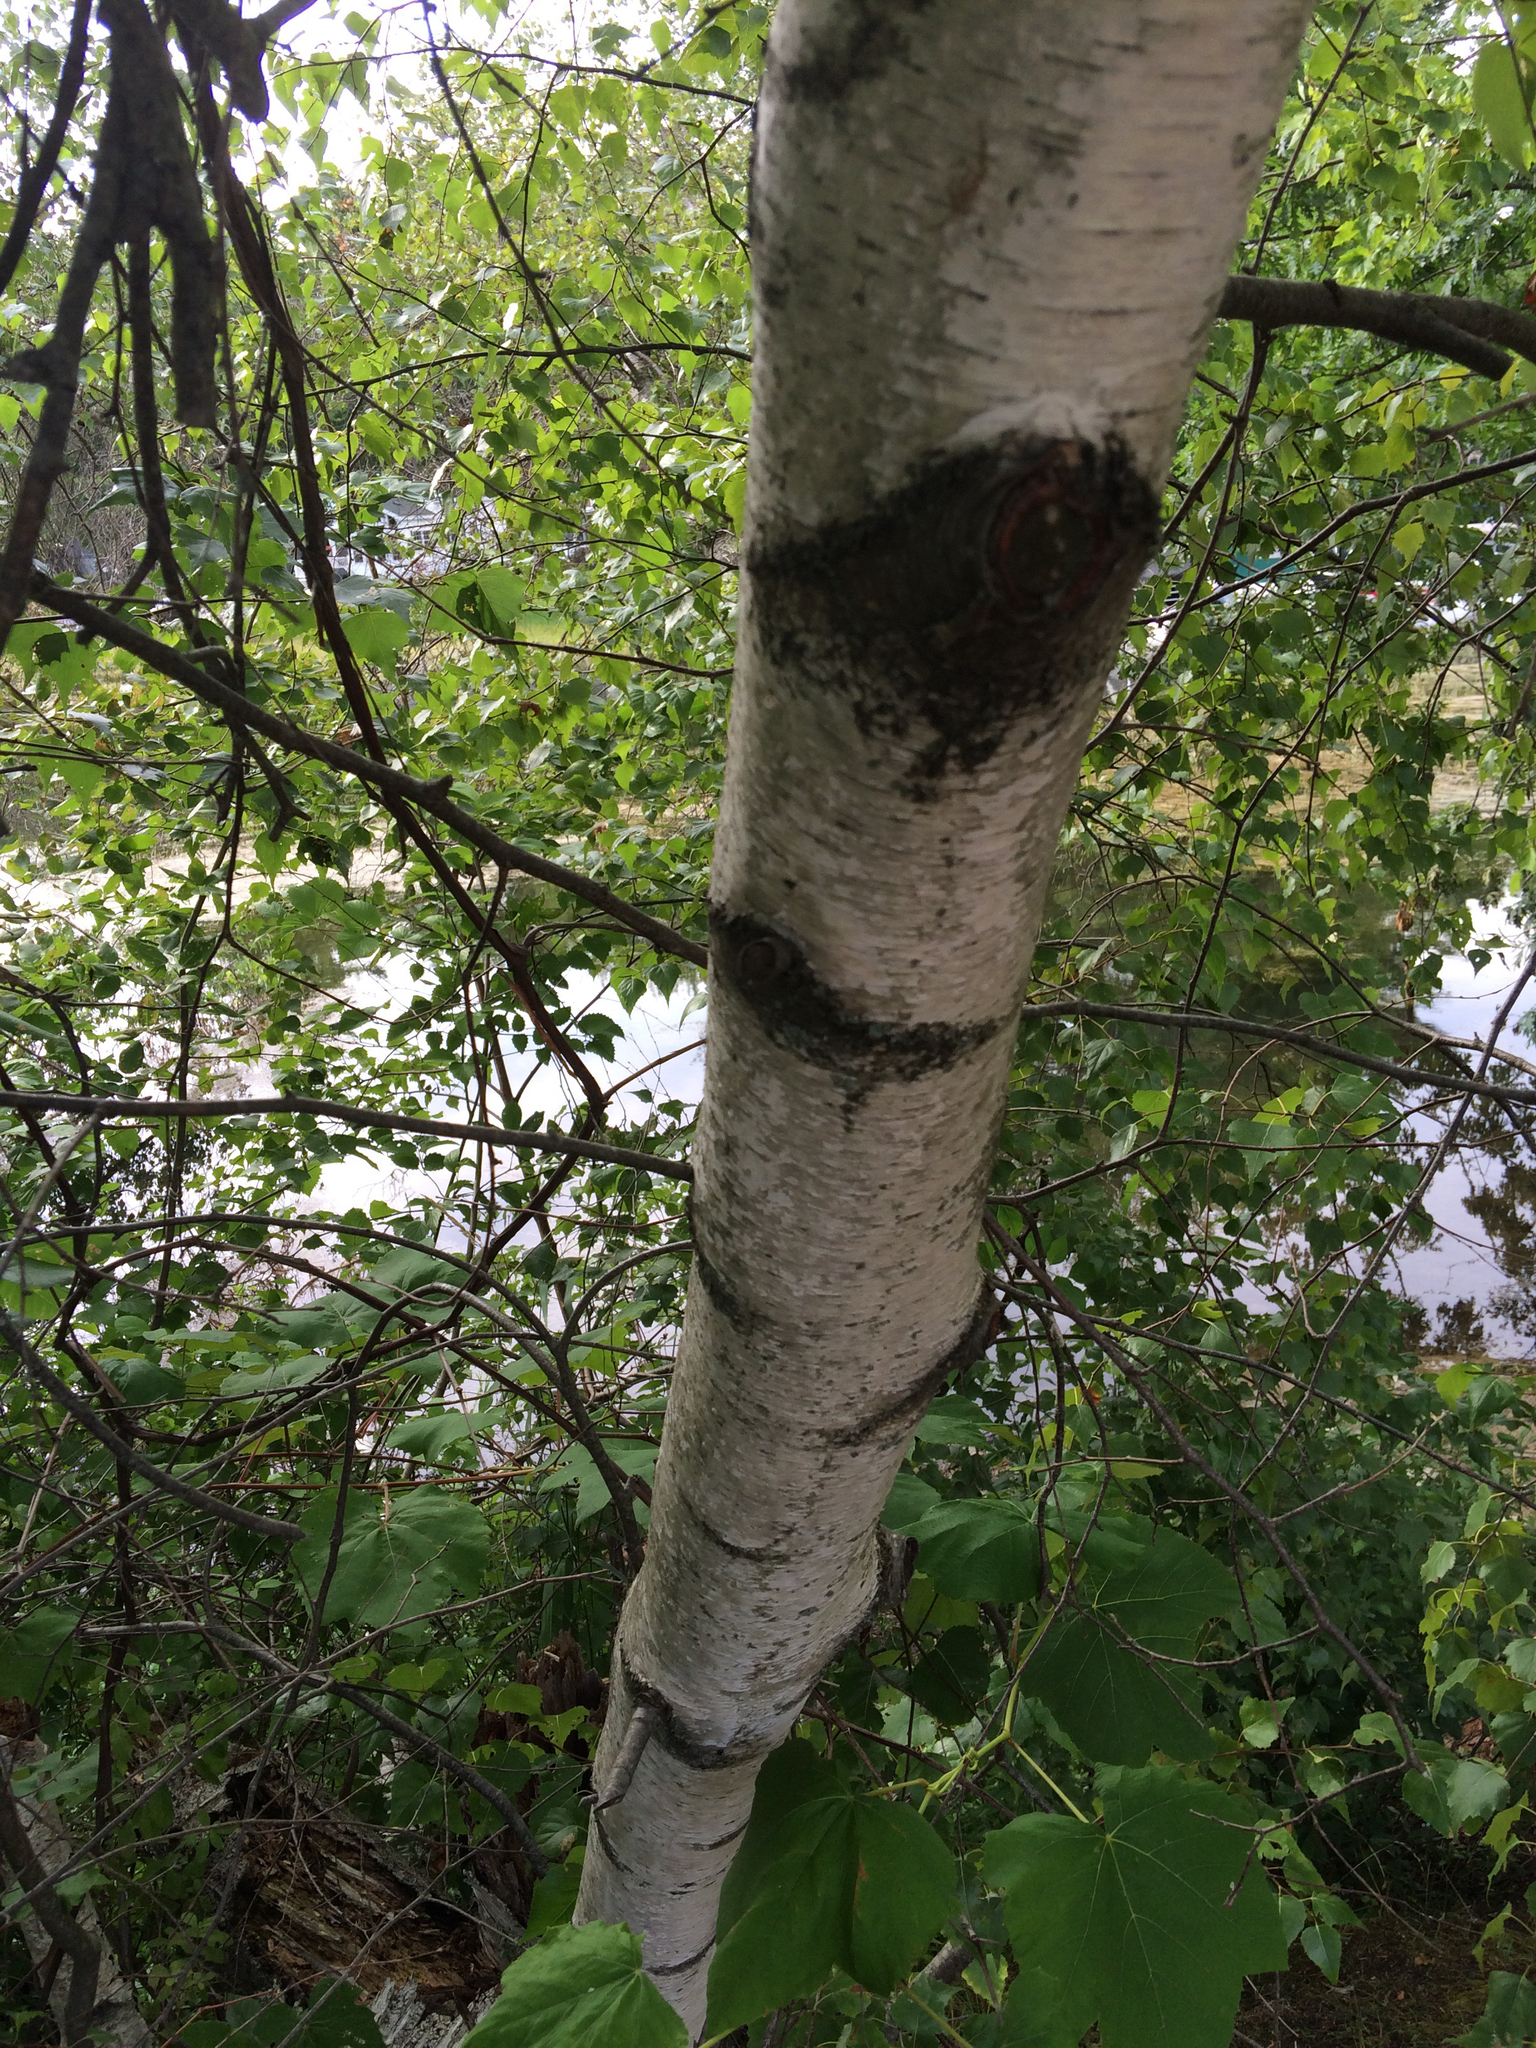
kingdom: Plantae
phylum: Tracheophyta
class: Magnoliopsida
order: Fagales
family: Betulaceae
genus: Betula
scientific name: Betula populifolia
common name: Fire birch
